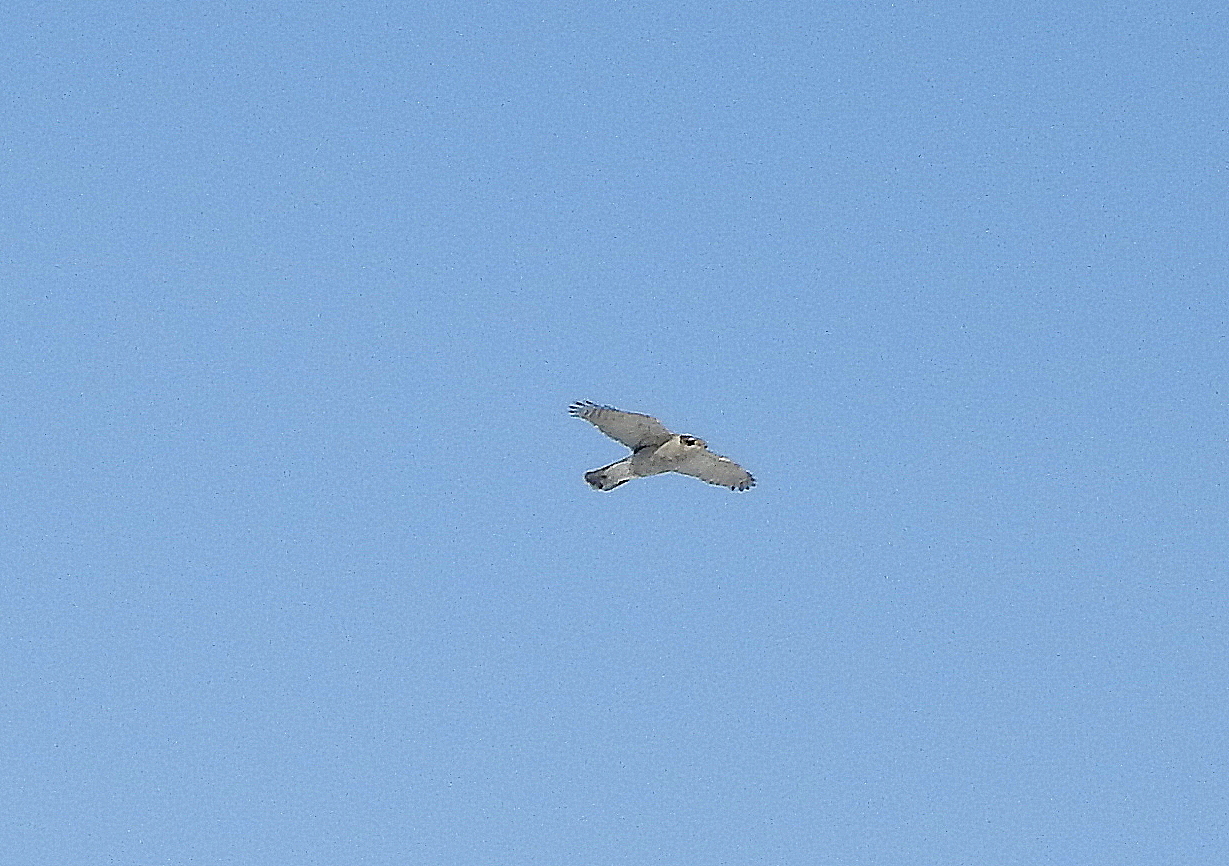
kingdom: Animalia
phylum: Chordata
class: Aves
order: Accipitriformes
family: Accipitridae
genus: Accipiter
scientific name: Accipiter gentilis
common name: Northern goshawk
